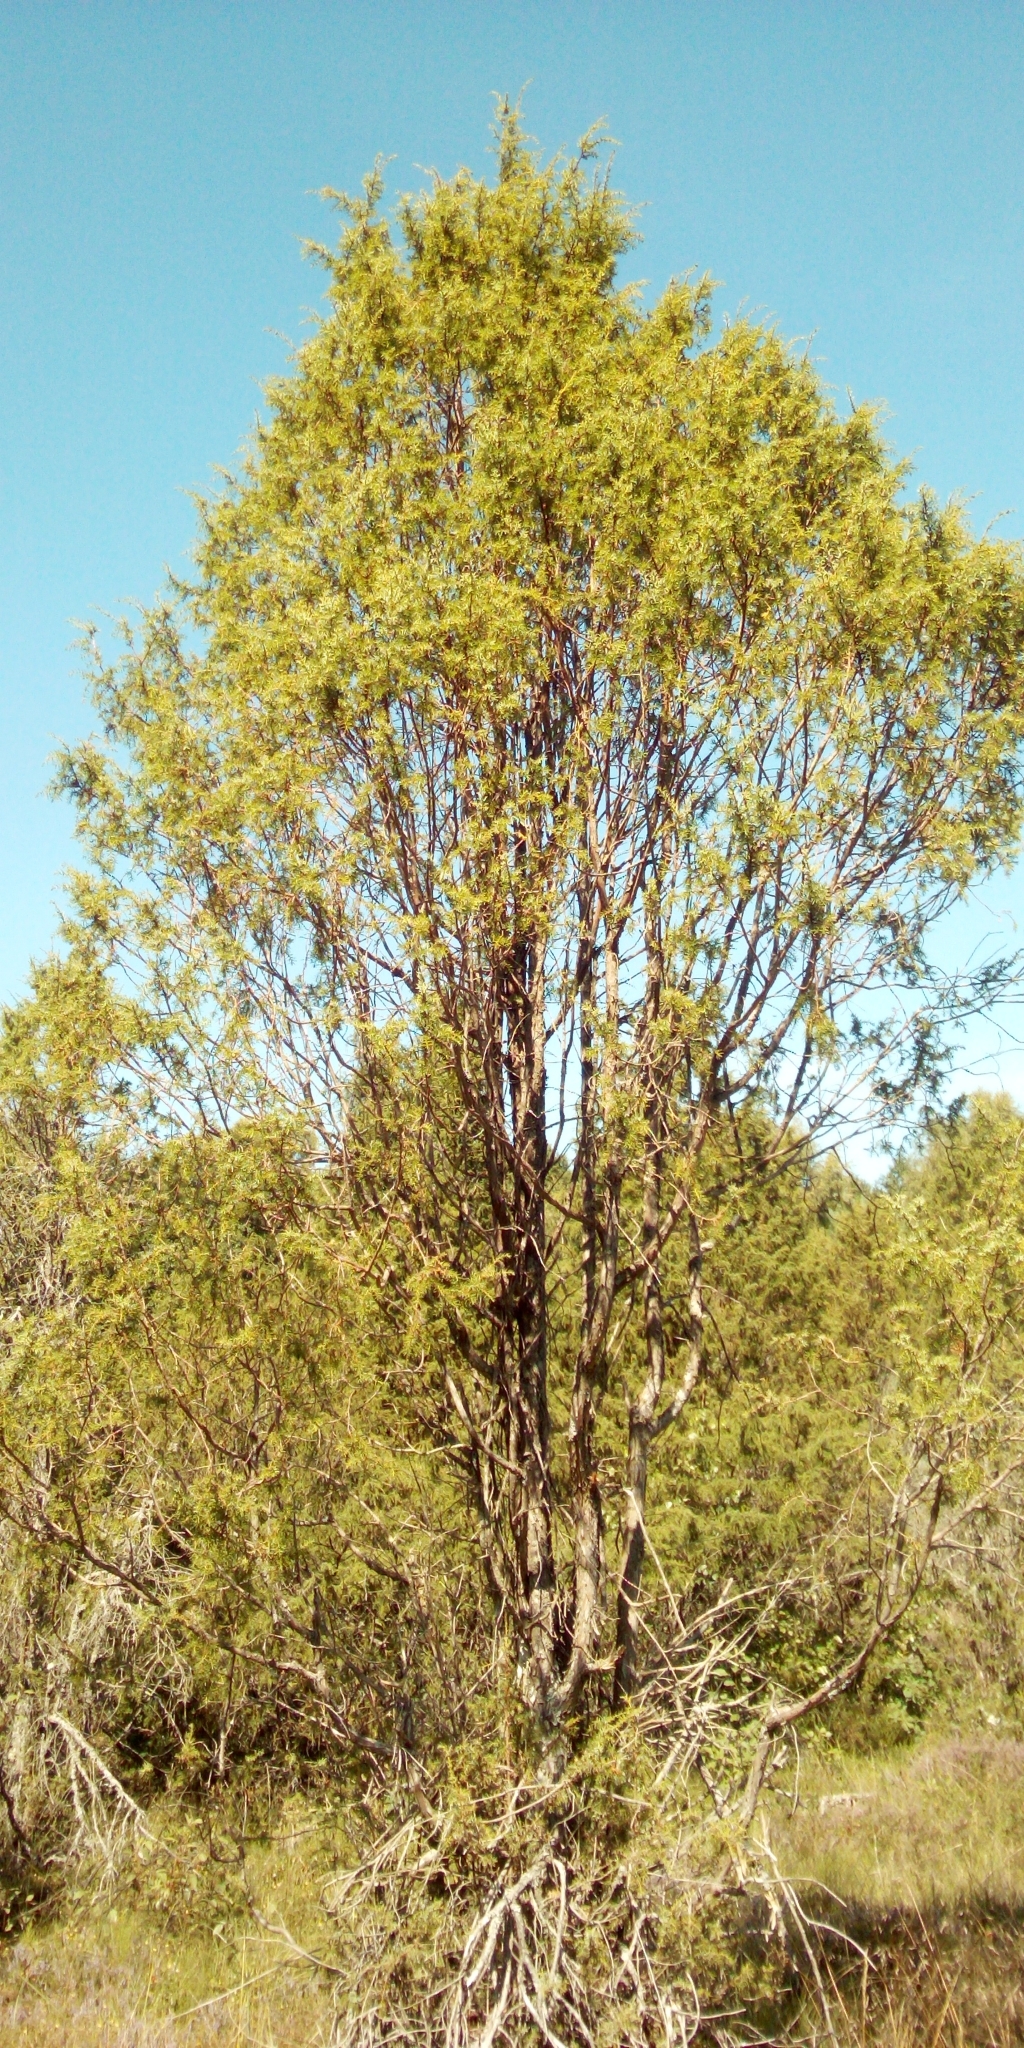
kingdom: Plantae
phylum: Tracheophyta
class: Pinopsida
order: Pinales
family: Cupressaceae
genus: Juniperus
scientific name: Juniperus communis
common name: Common juniper
